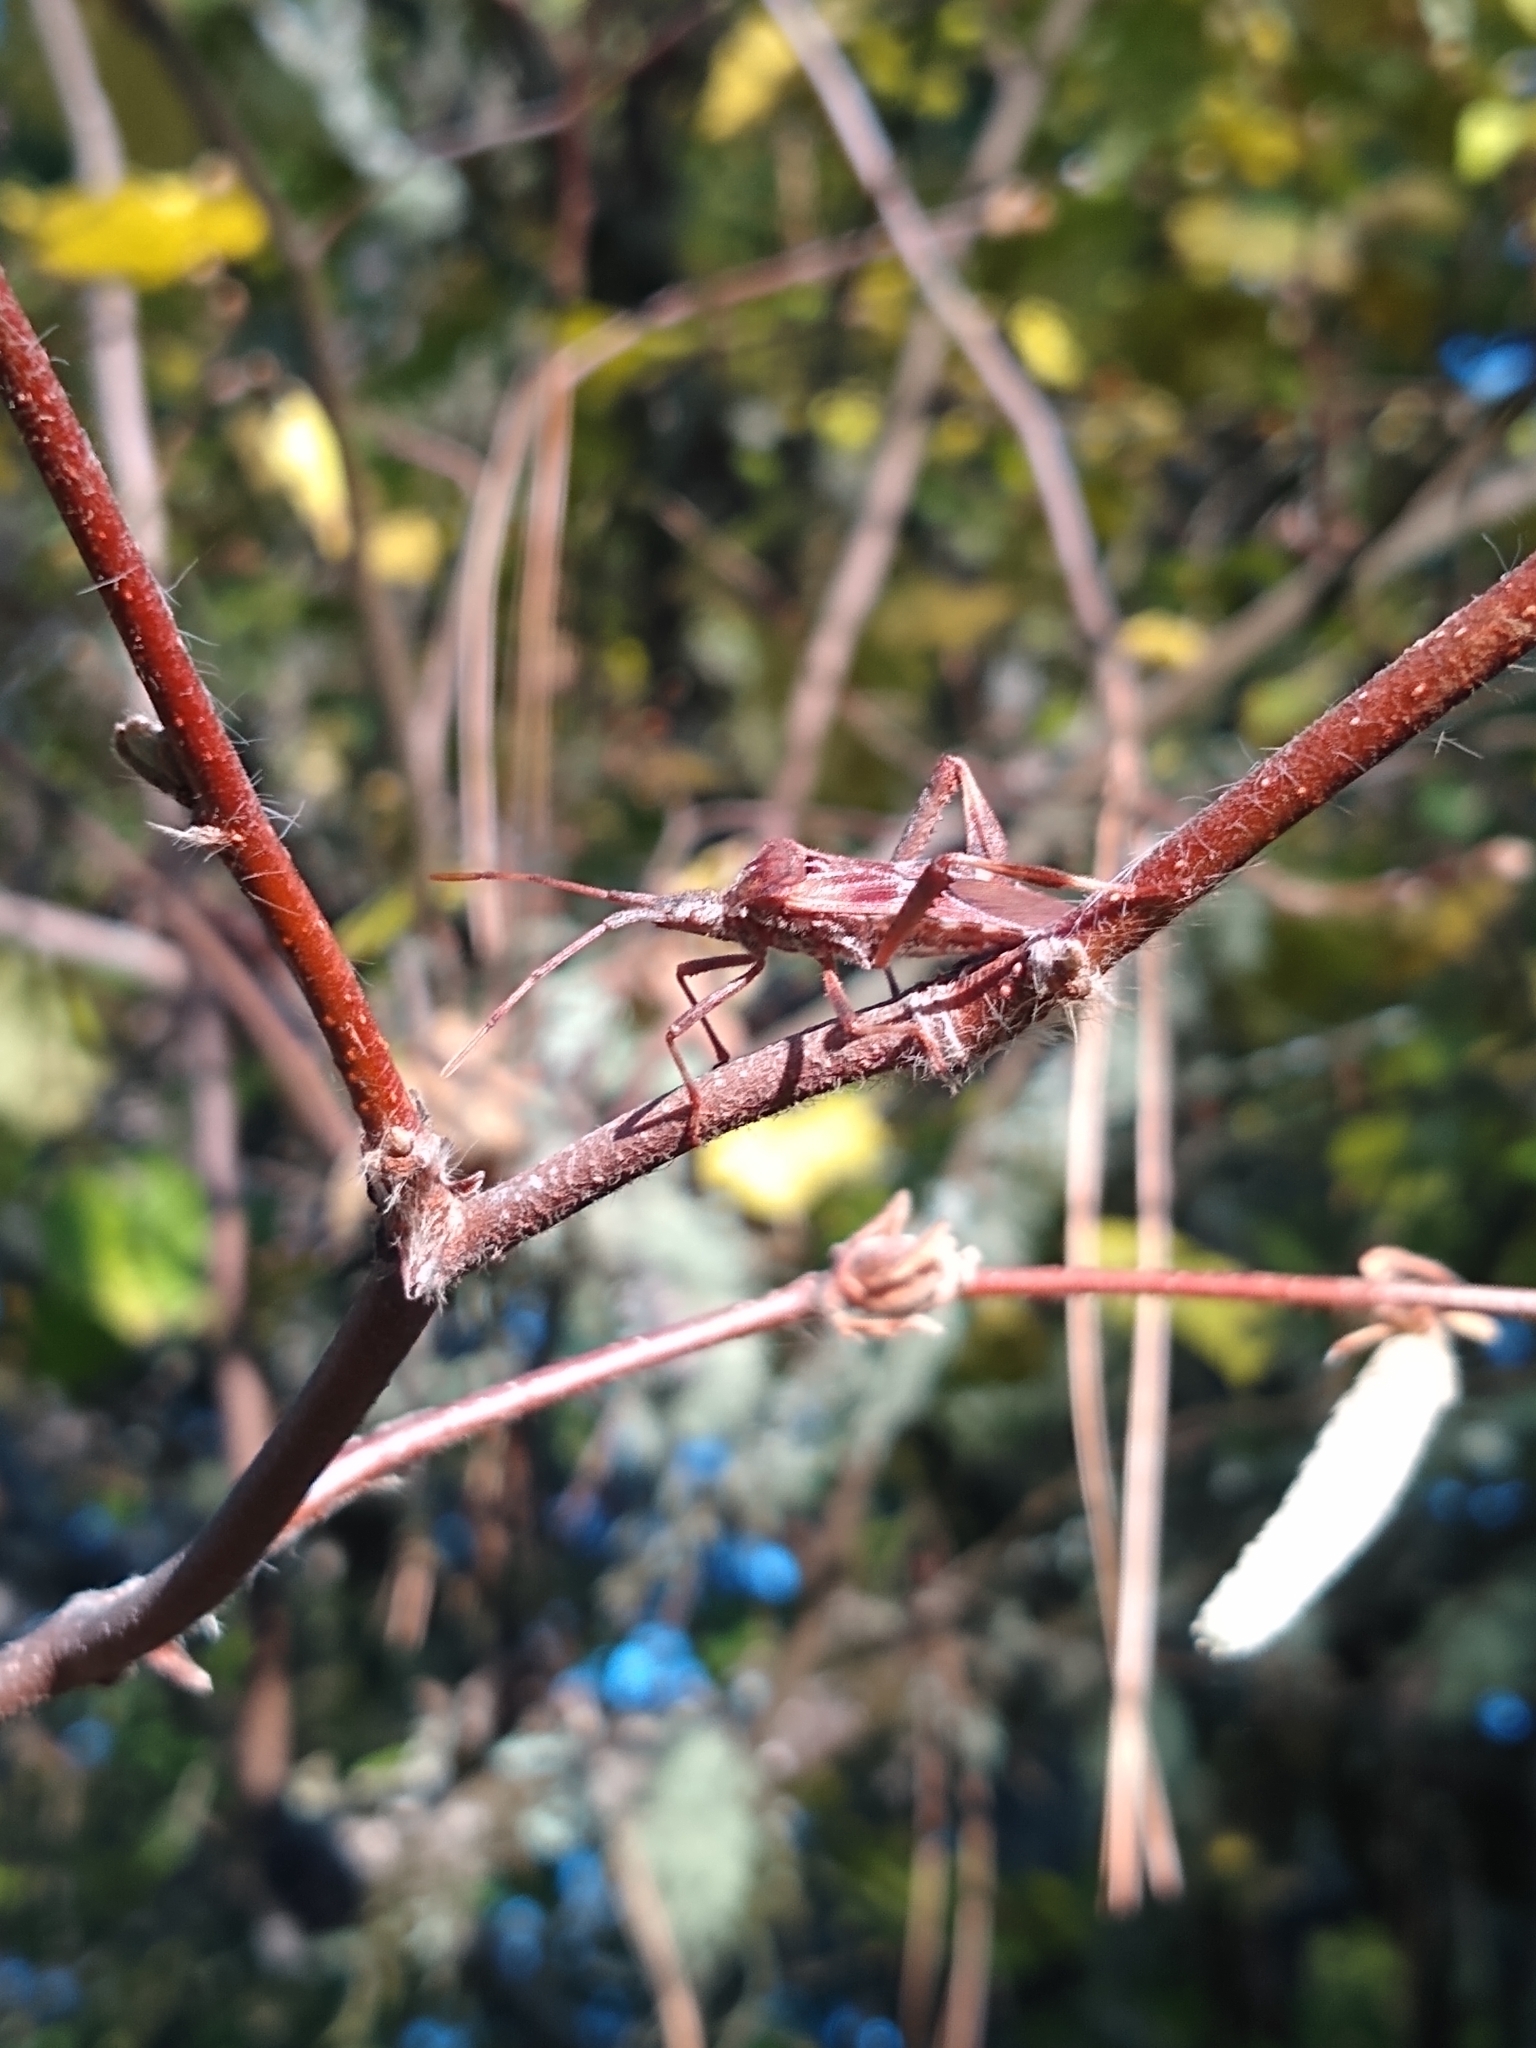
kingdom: Animalia
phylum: Arthropoda
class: Insecta
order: Hemiptera
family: Coreidae
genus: Leptoglossus
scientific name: Leptoglossus occidentalis
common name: Western conifer-seed bug
